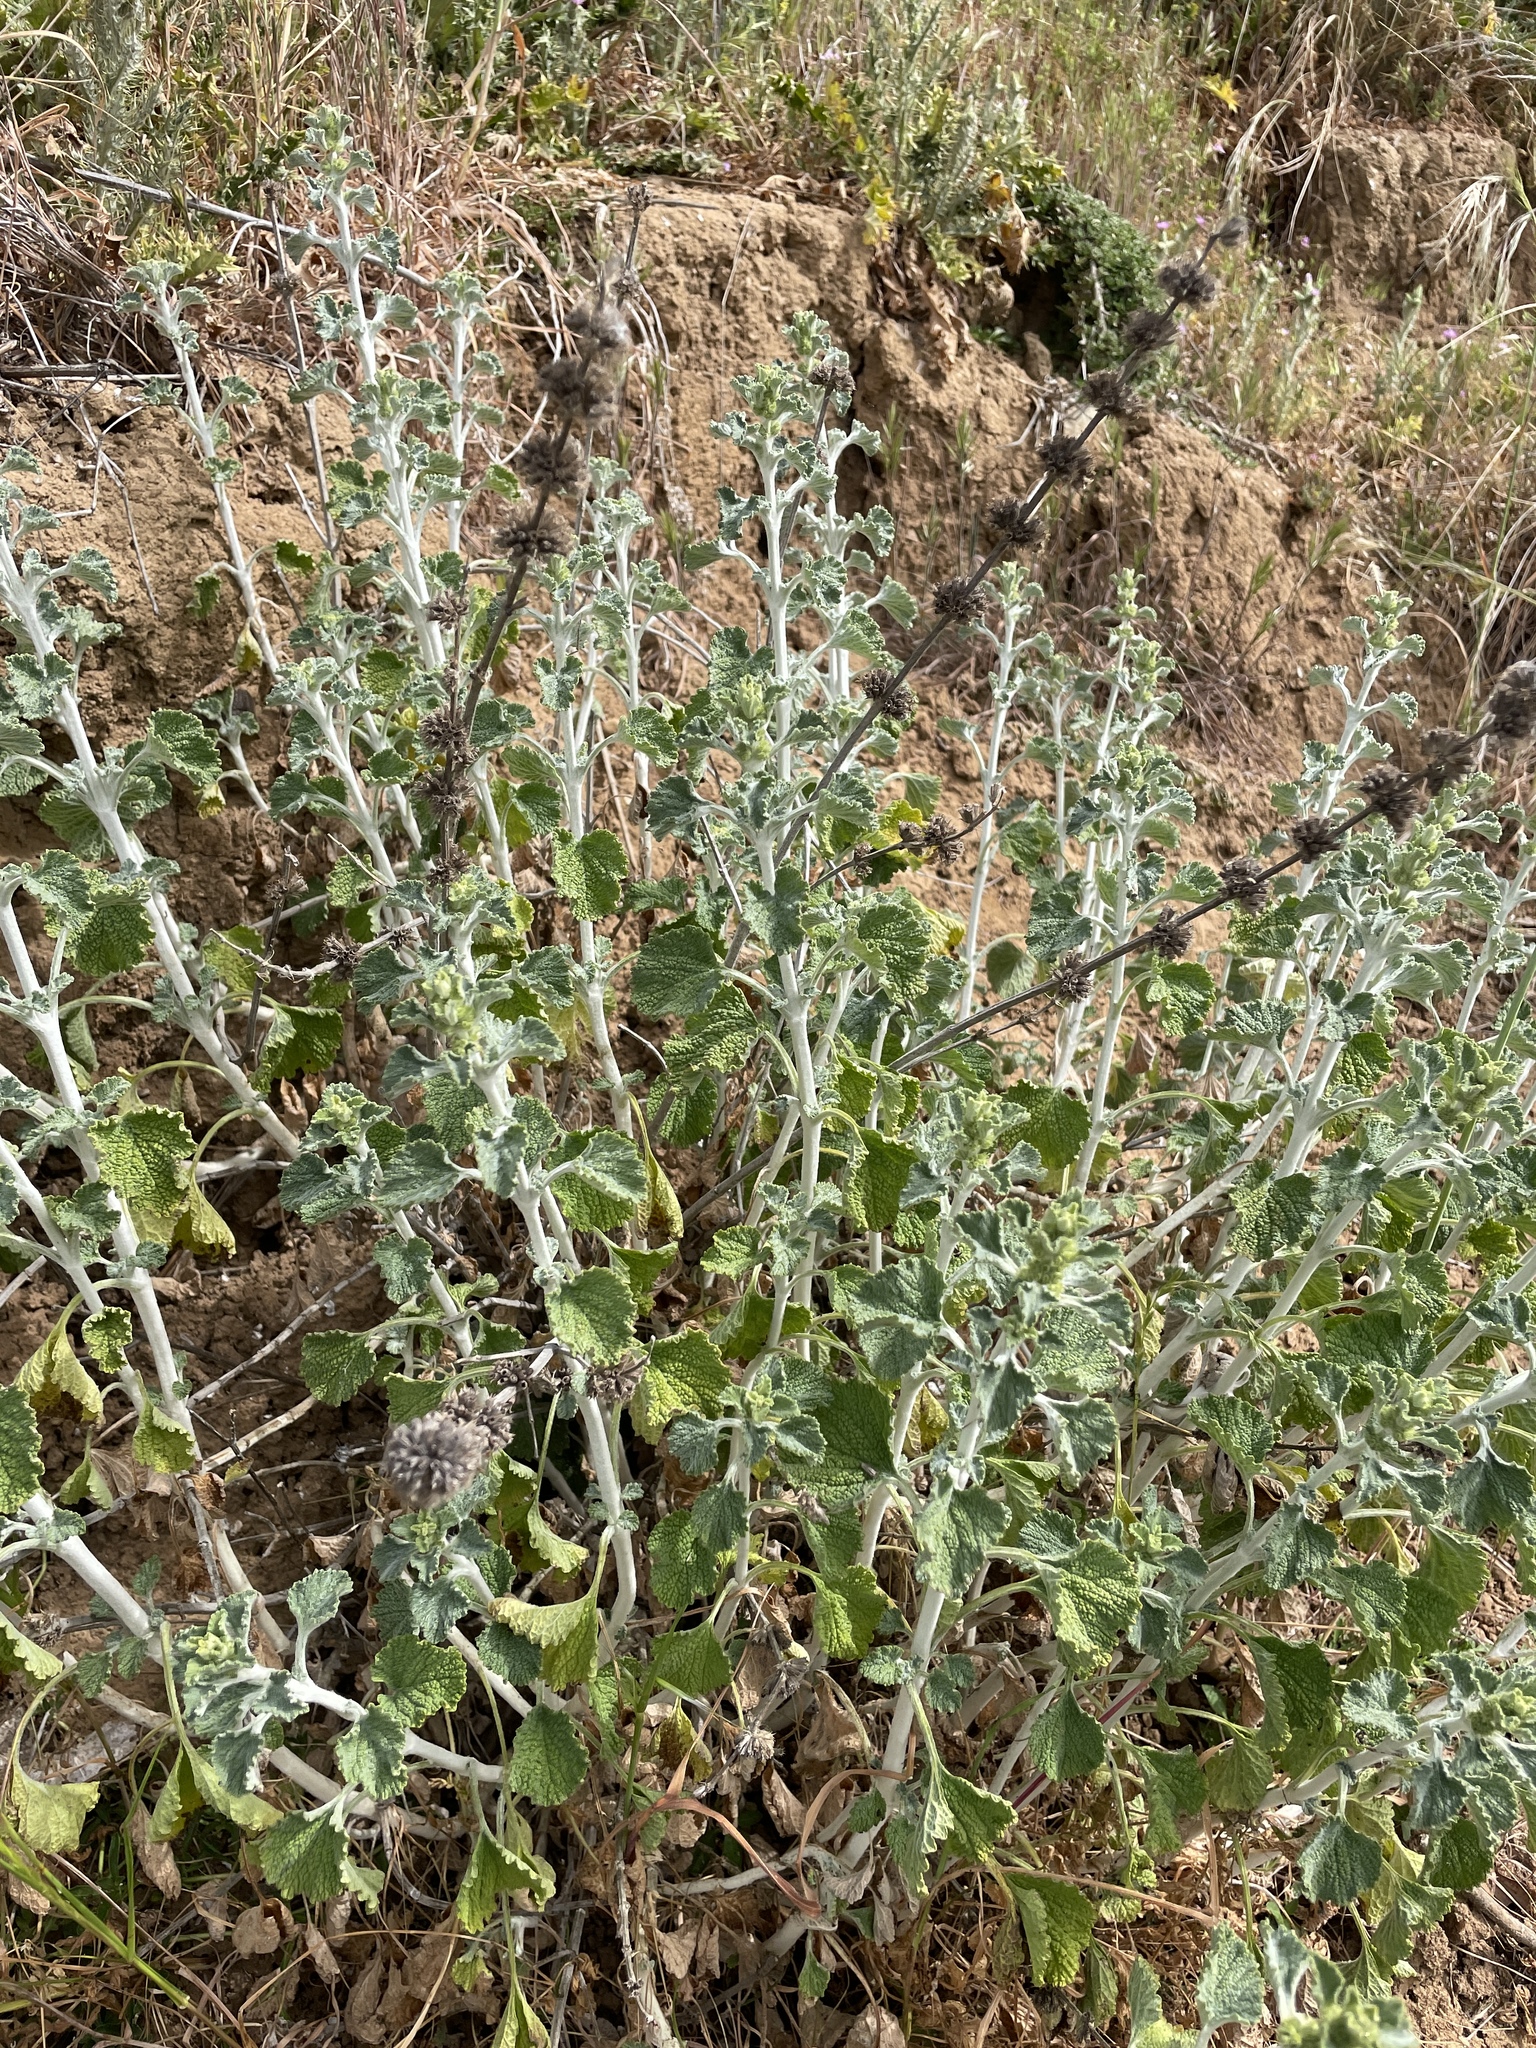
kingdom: Plantae
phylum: Tracheophyta
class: Magnoliopsida
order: Lamiales
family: Lamiaceae
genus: Marrubium
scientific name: Marrubium vulgare
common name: Horehound
